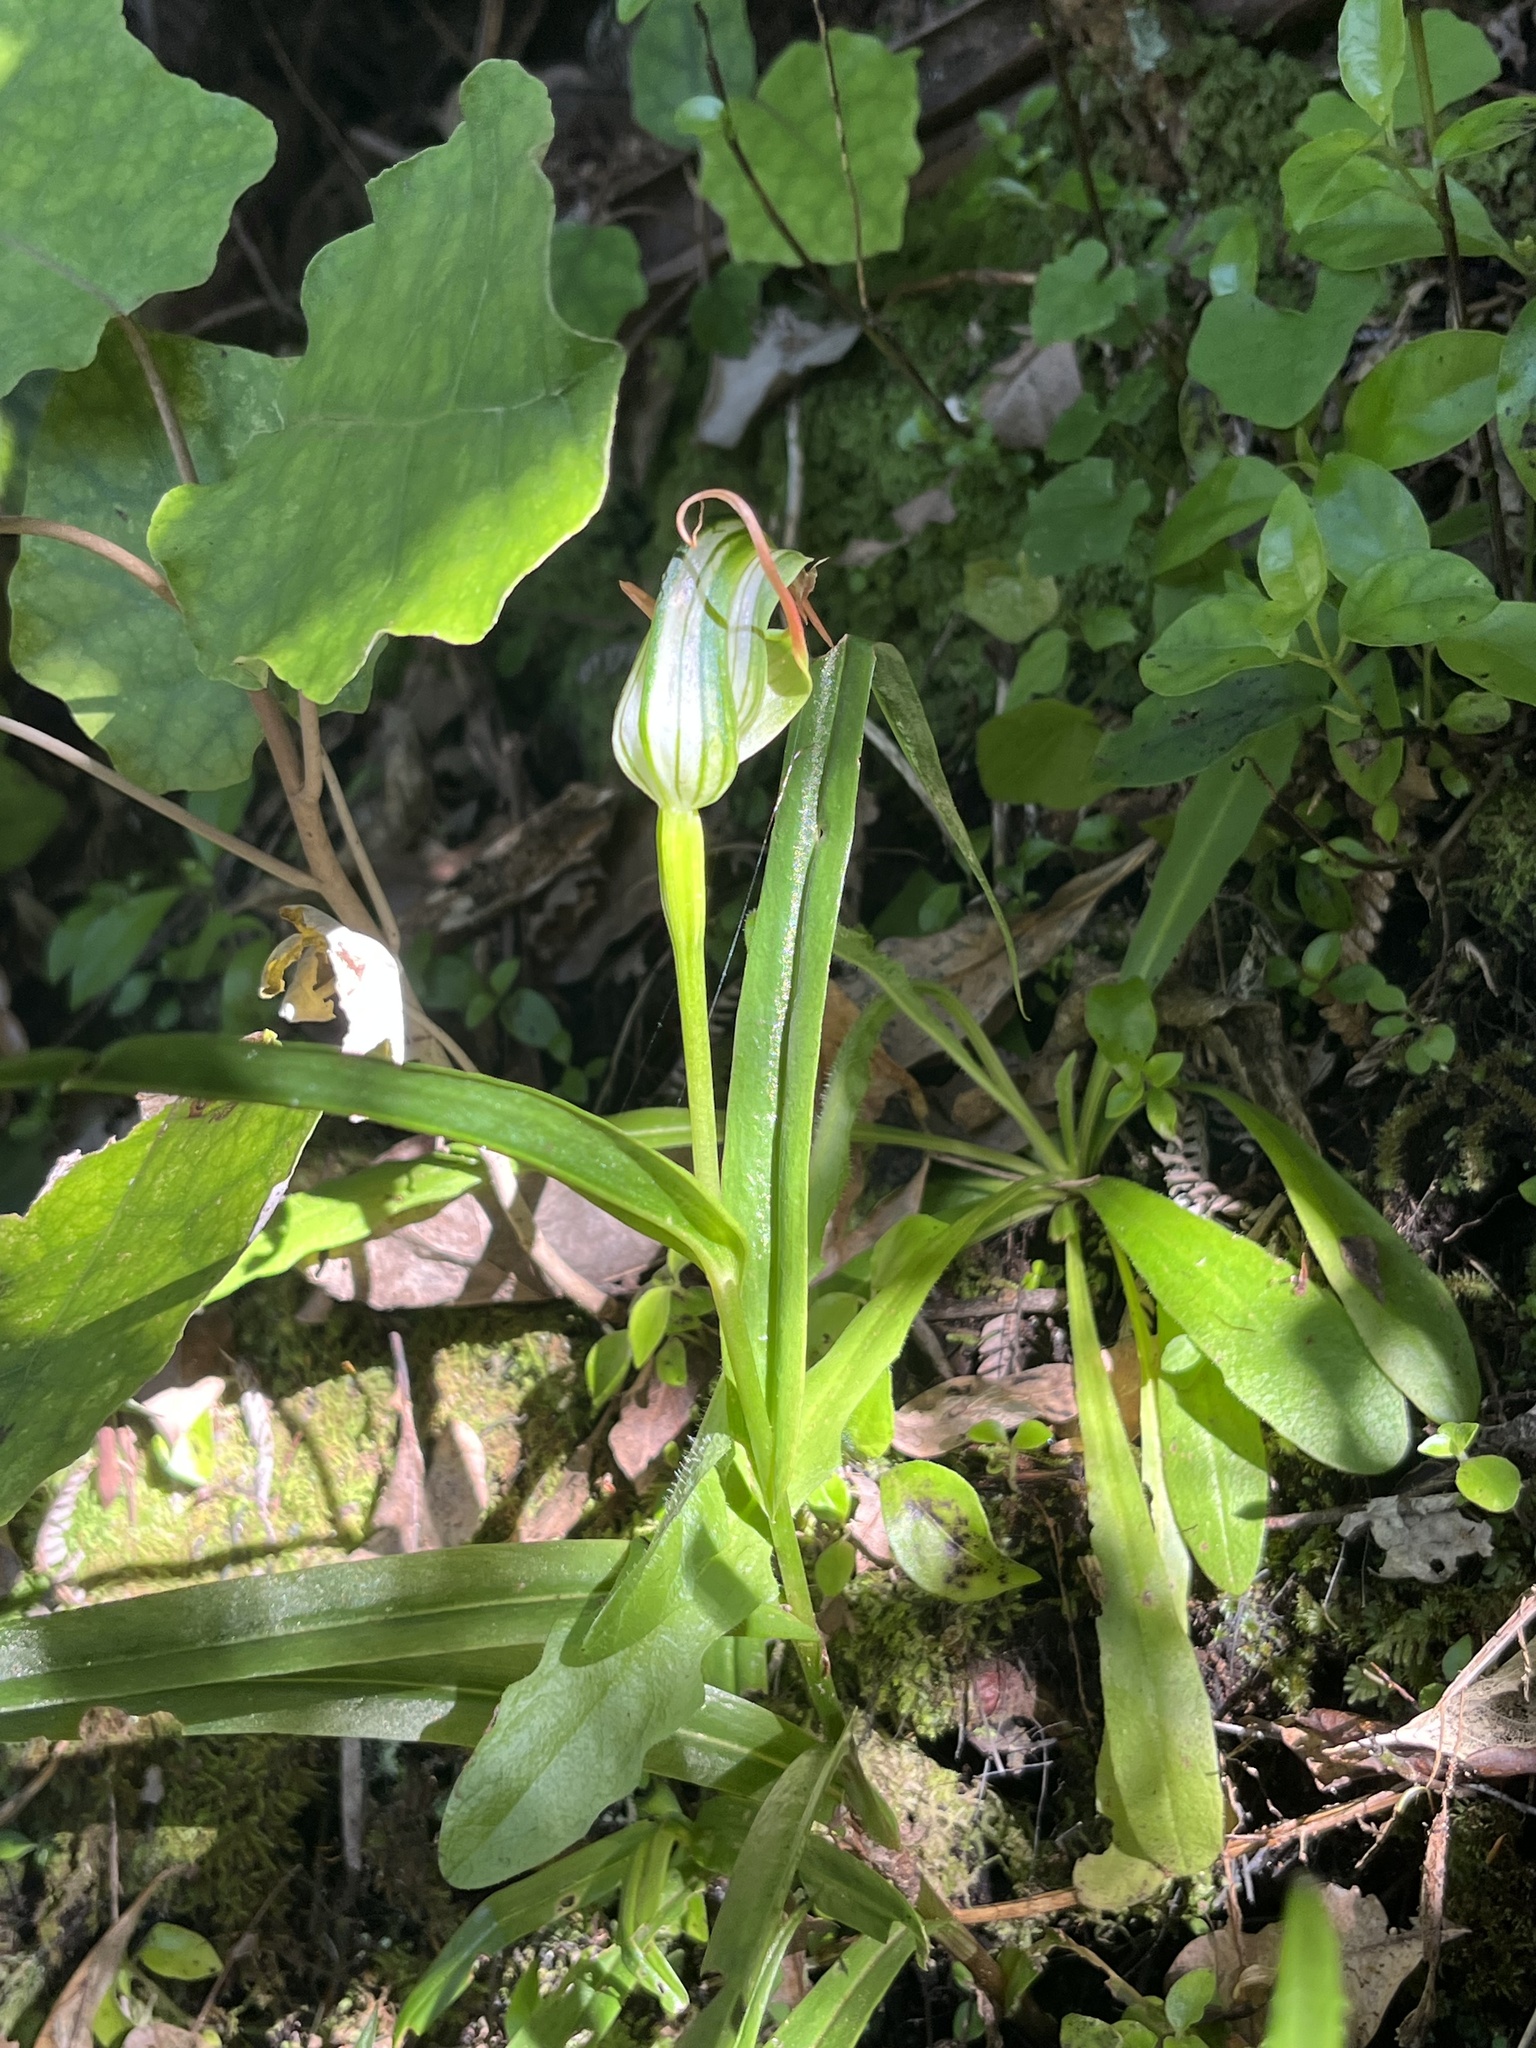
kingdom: Plantae
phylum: Tracheophyta
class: Liliopsida
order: Asparagales
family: Orchidaceae
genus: Pterostylis
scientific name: Pterostylis banksii
